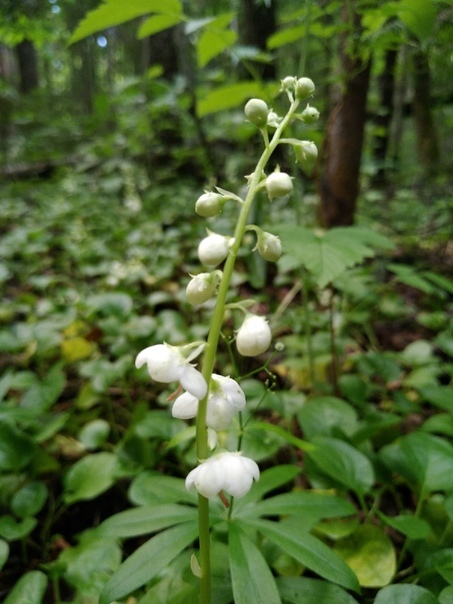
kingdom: Plantae
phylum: Tracheophyta
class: Magnoliopsida
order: Ericales
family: Ericaceae
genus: Pyrola
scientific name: Pyrola rotundifolia
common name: Round-leaved wintergreen
